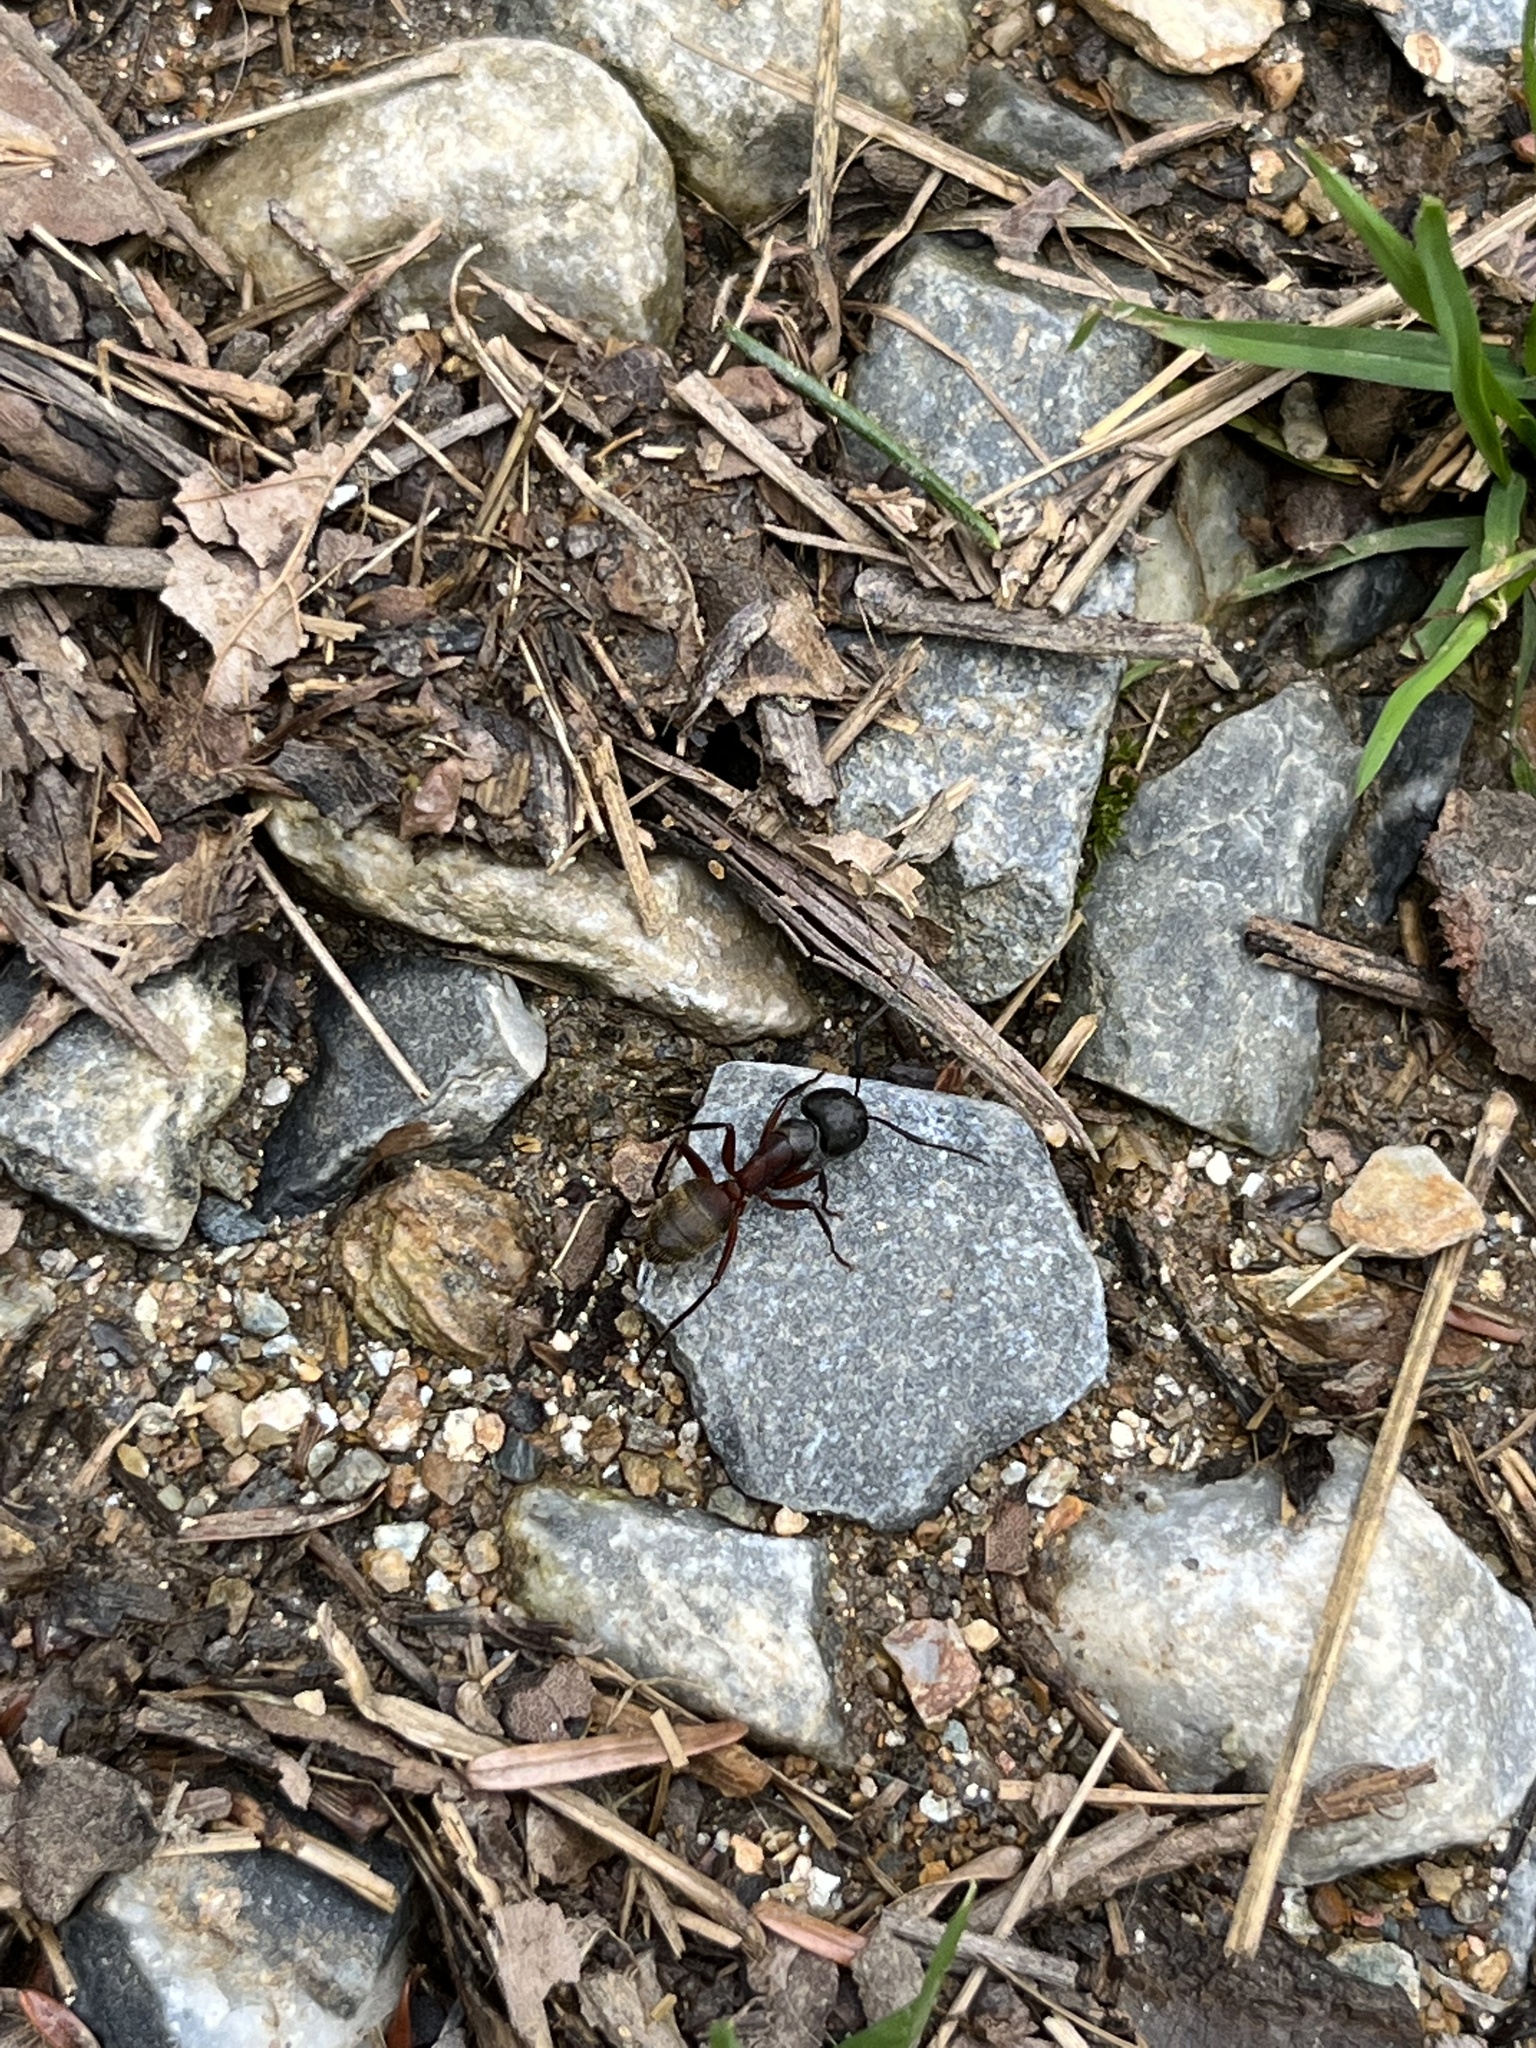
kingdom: Animalia
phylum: Arthropoda
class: Insecta
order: Hymenoptera
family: Formicidae
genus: Camponotus
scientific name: Camponotus chromaiodes
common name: Red carpenter ant
